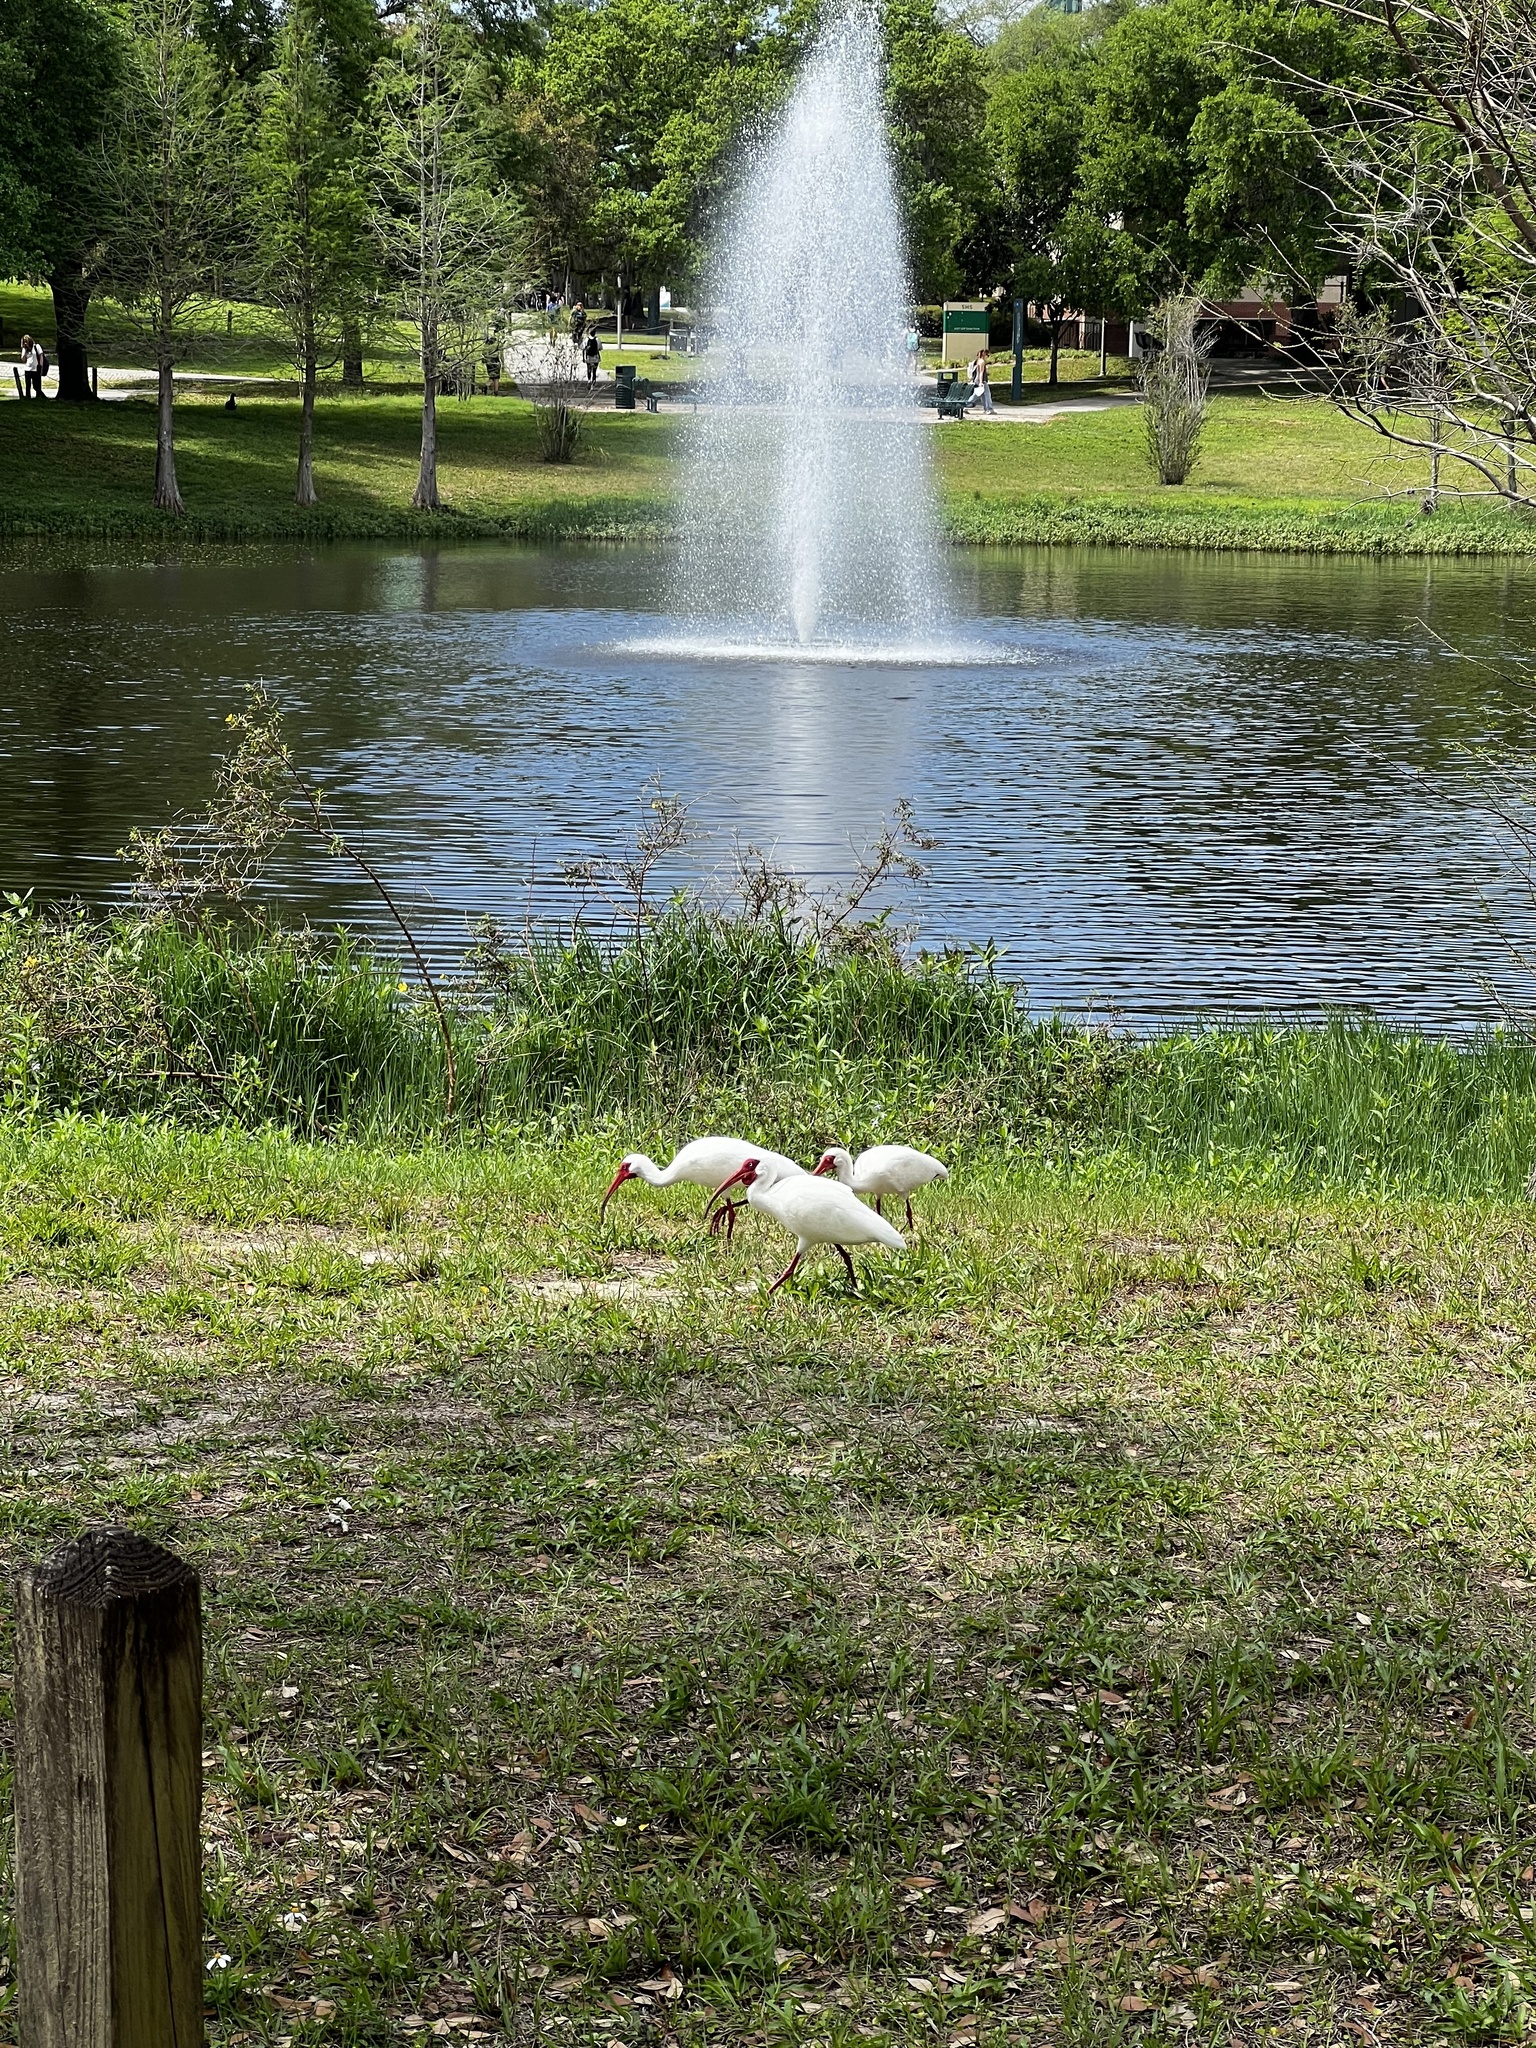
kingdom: Animalia
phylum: Chordata
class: Aves
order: Pelecaniformes
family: Threskiornithidae
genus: Eudocimus
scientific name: Eudocimus albus
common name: White ibis
